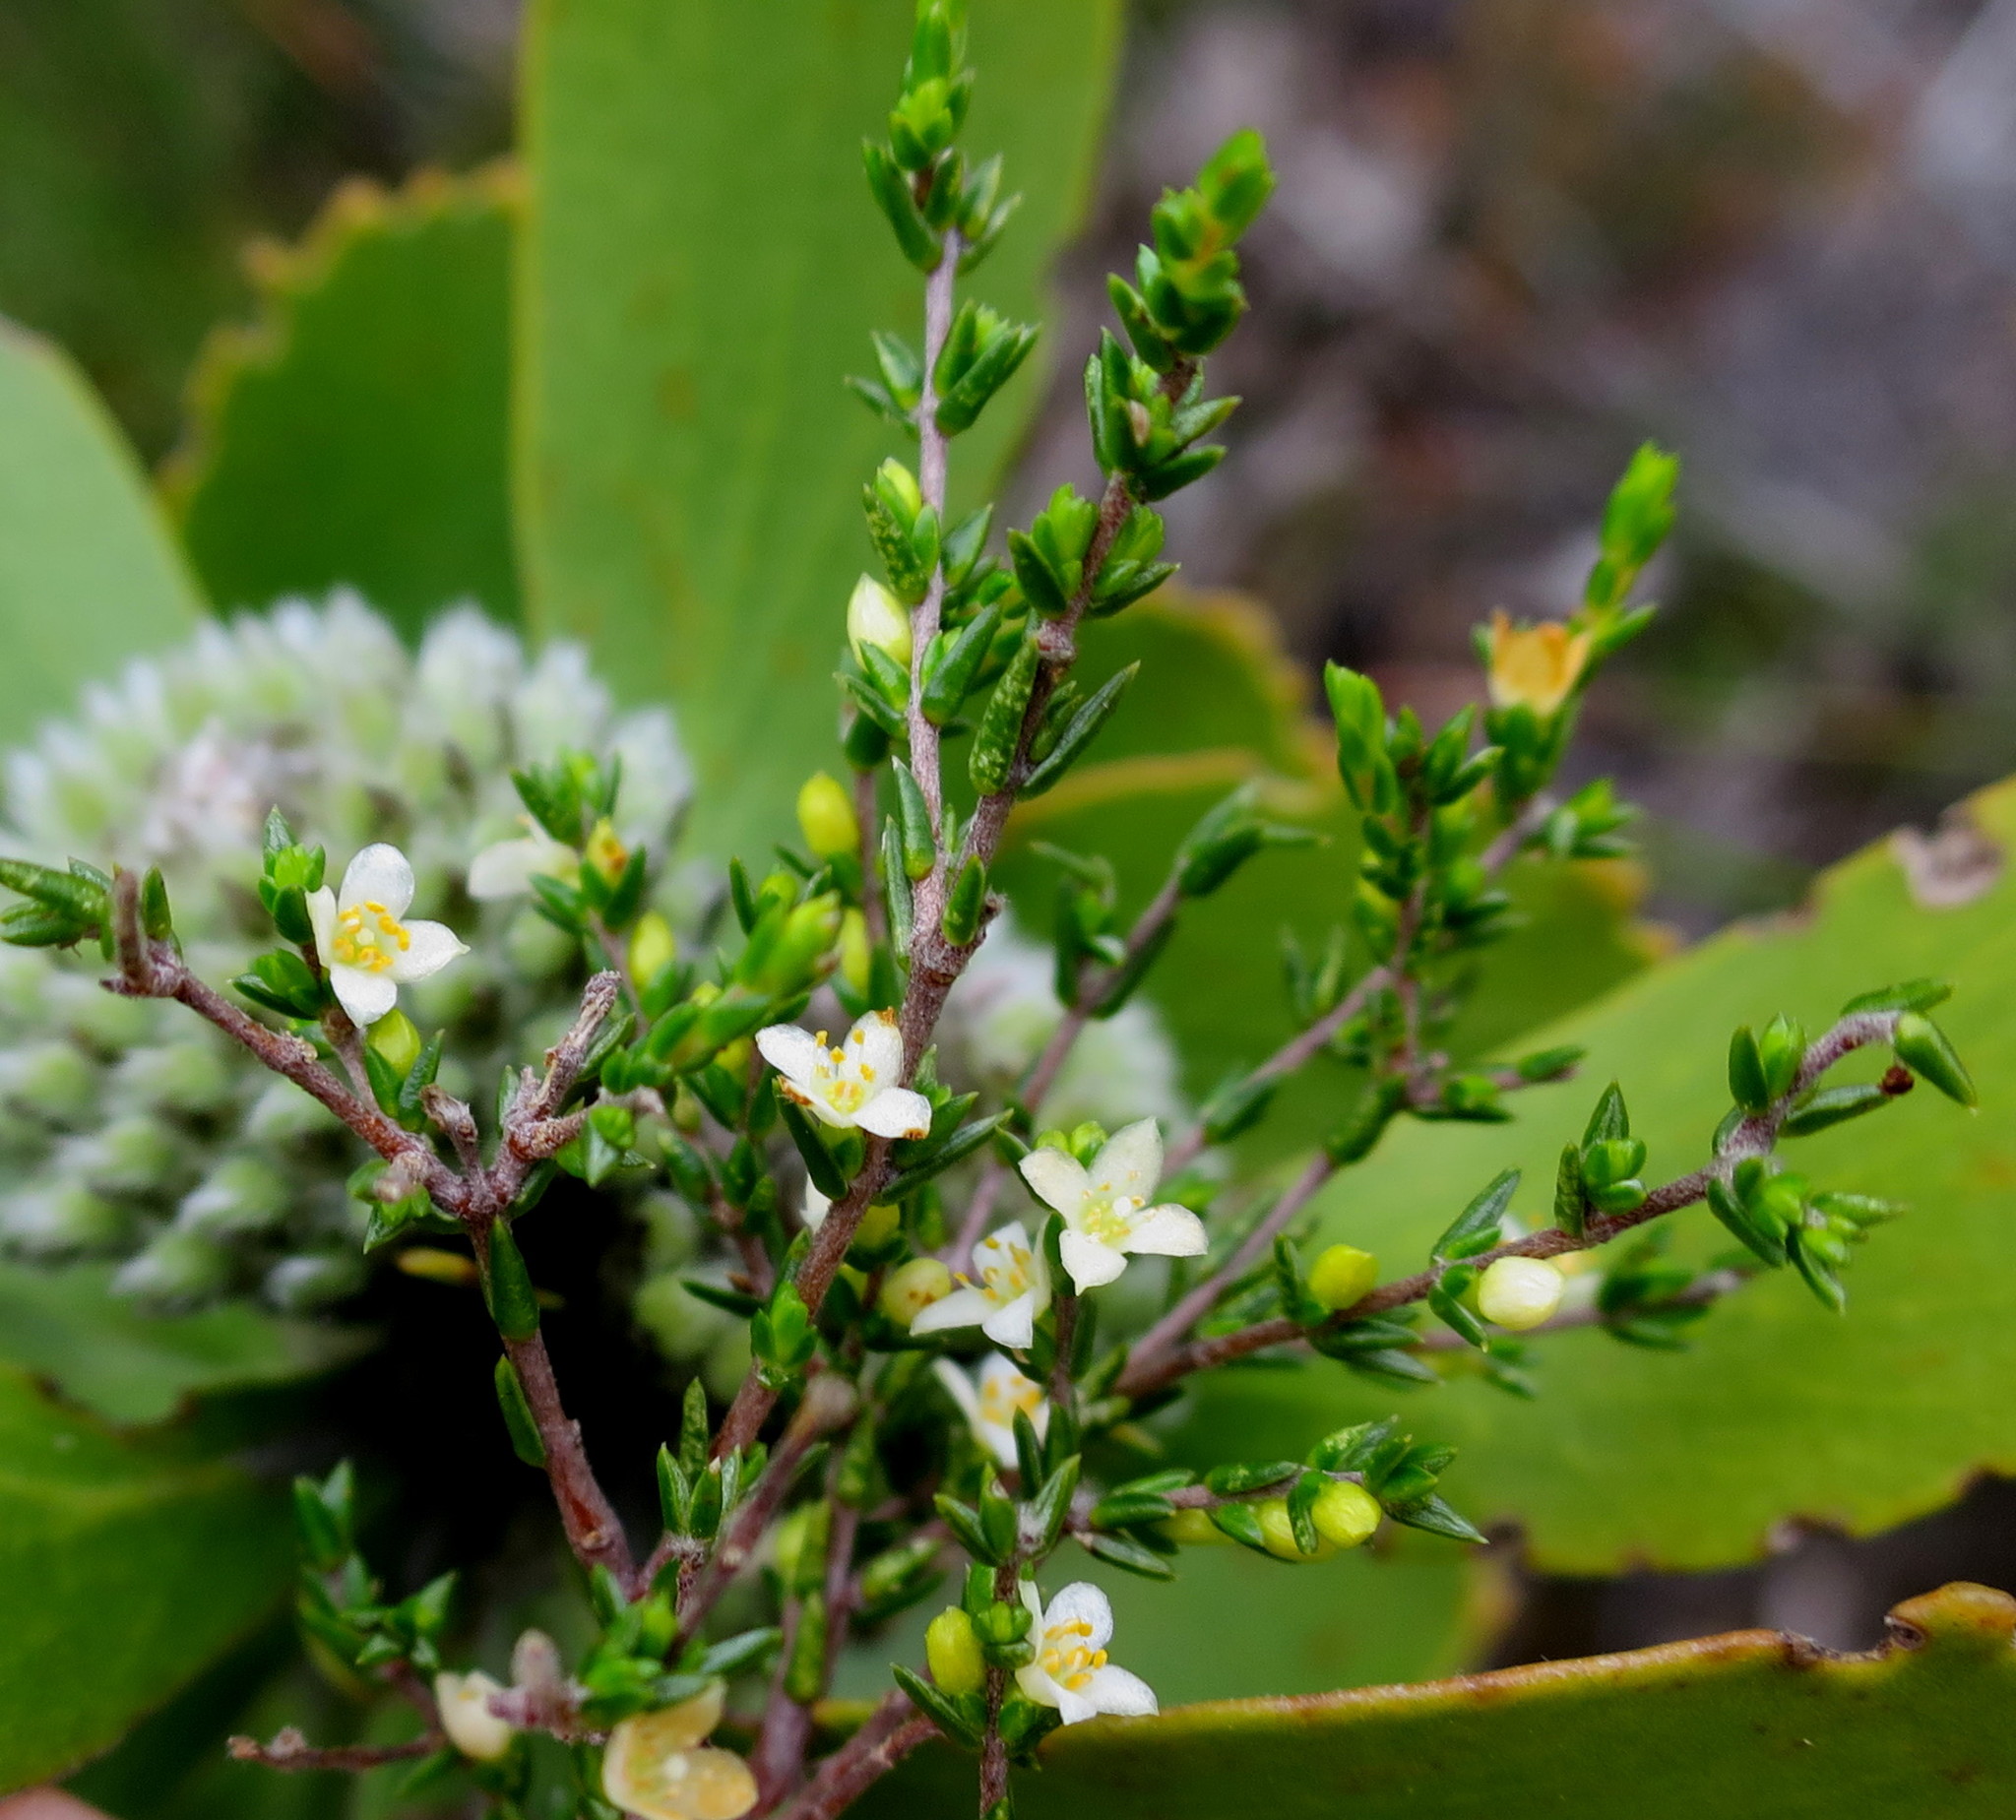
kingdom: Plantae
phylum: Tracheophyta
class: Magnoliopsida
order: Malvales
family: Thymelaeaceae
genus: Lachnaea
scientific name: Lachnaea axillaris
